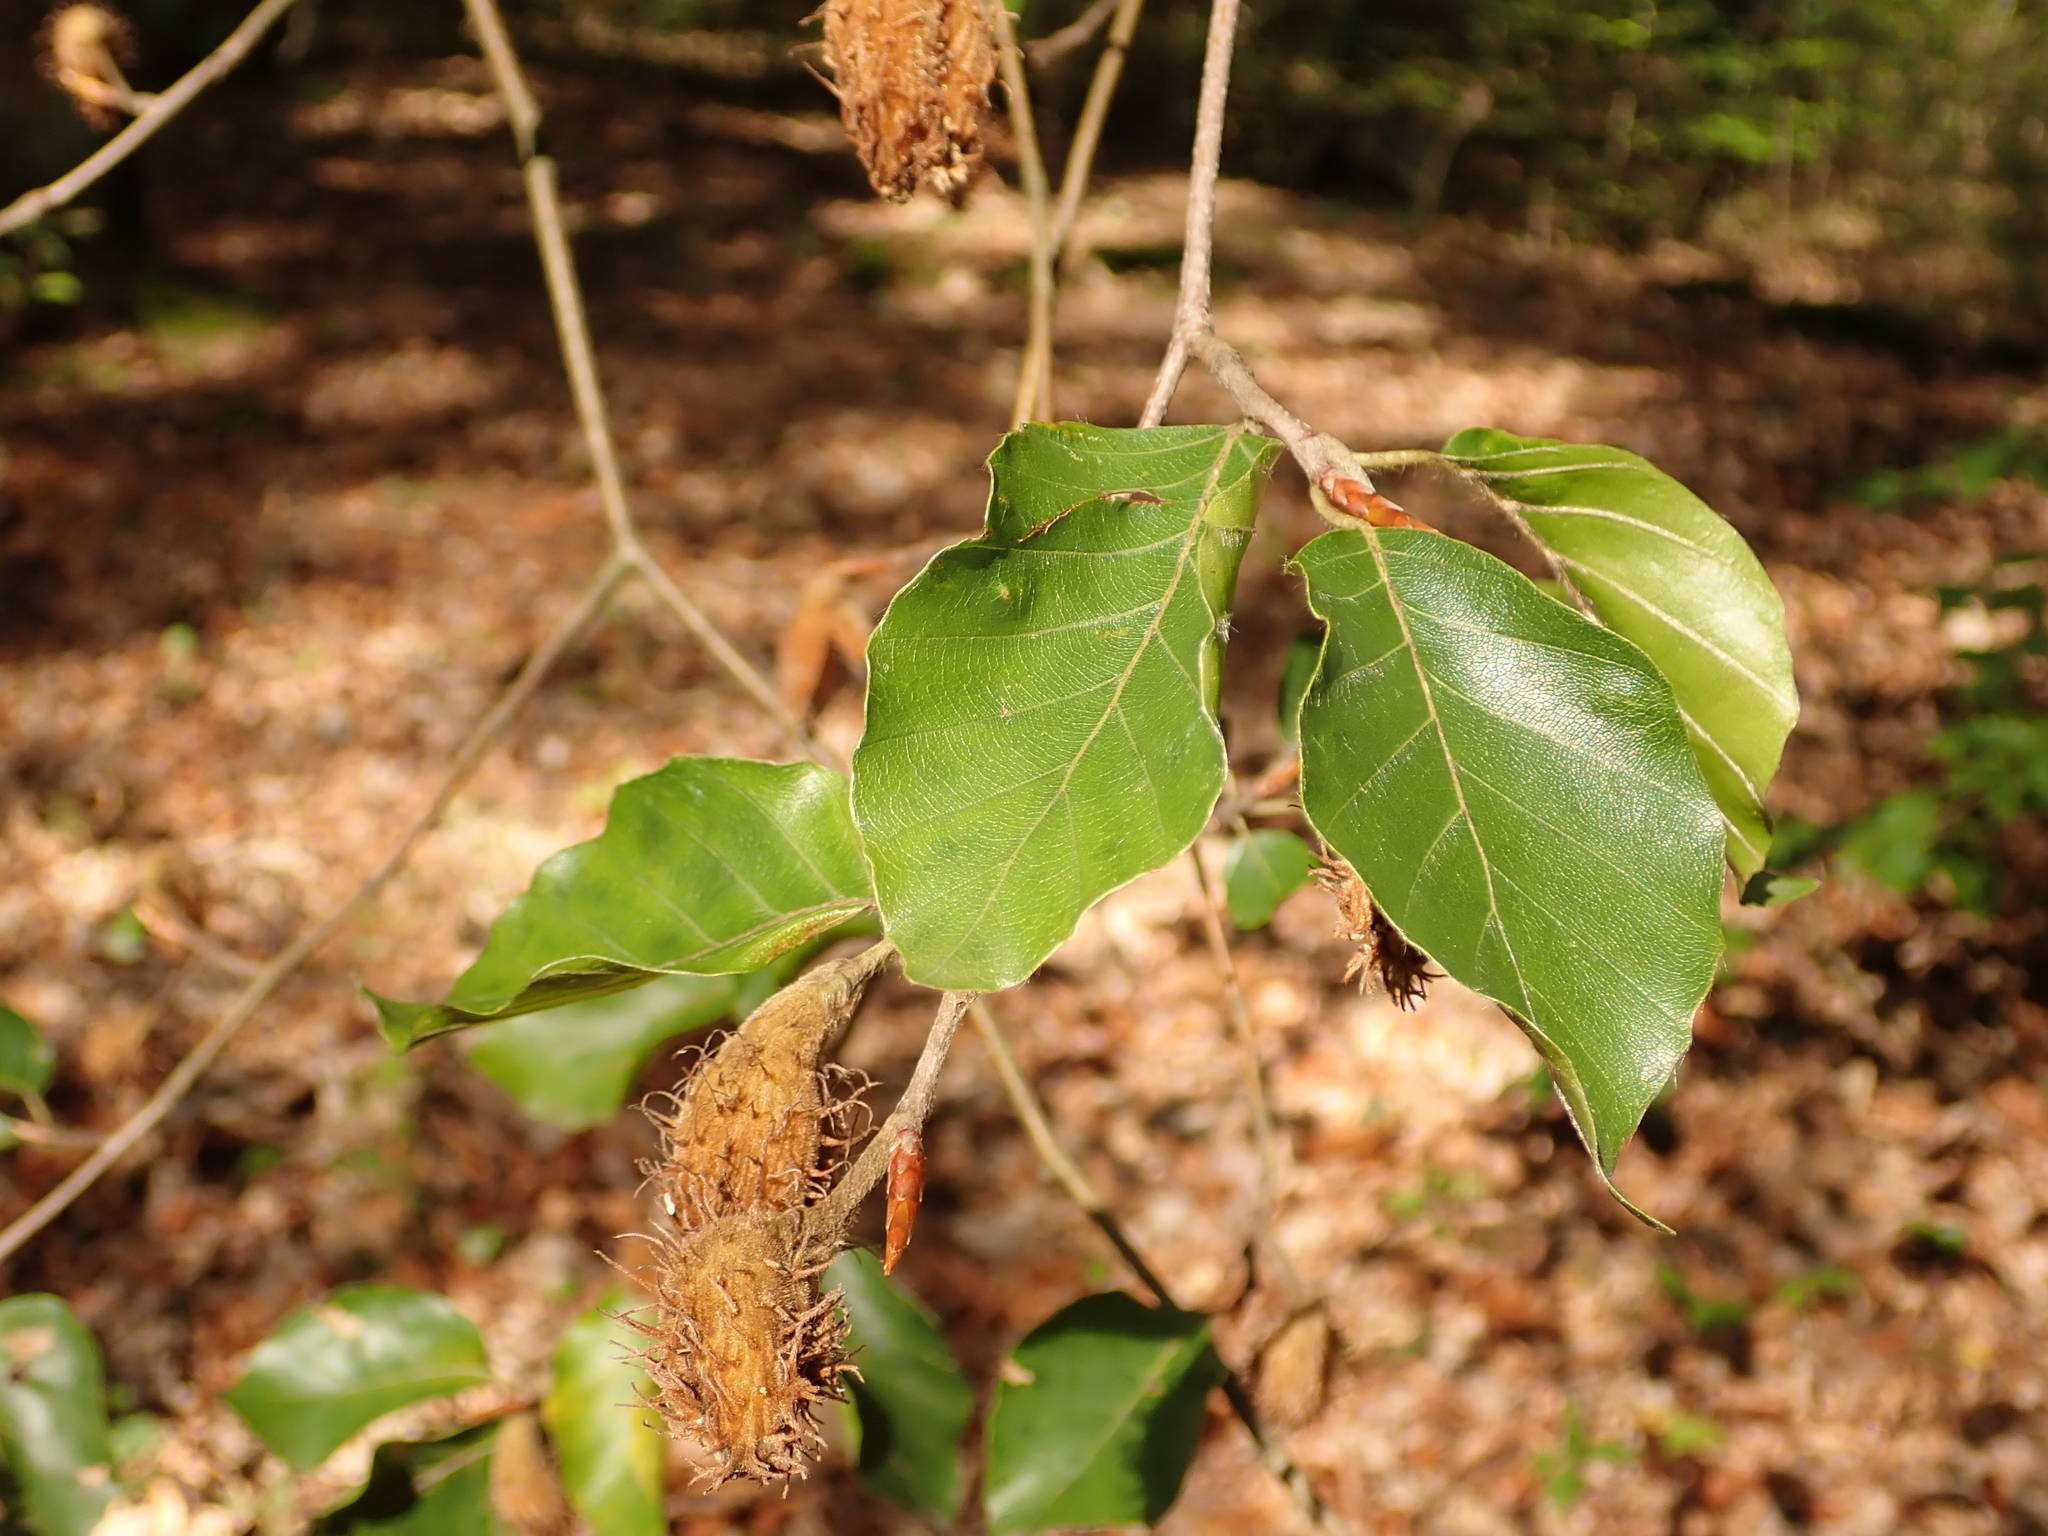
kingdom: Plantae
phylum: Tracheophyta
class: Magnoliopsida
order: Fagales
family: Fagaceae
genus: Fagus
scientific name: Fagus sylvatica
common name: Beech
